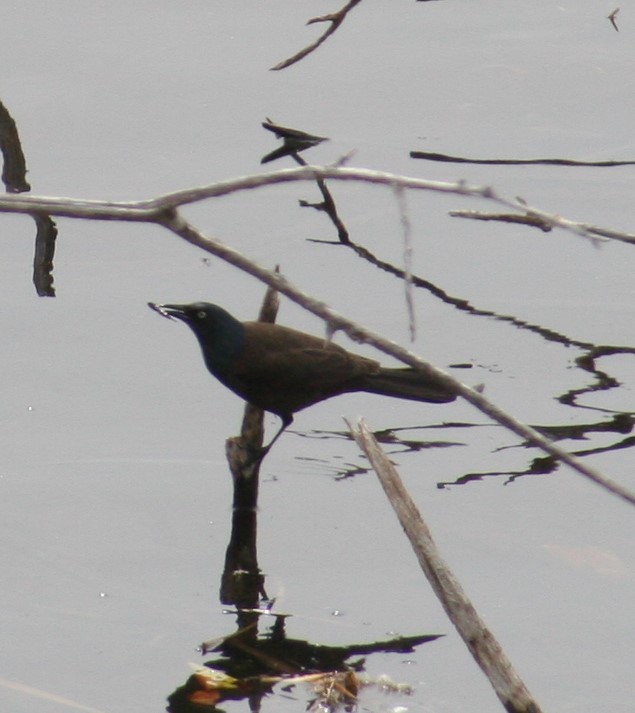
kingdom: Animalia
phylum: Chordata
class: Aves
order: Passeriformes
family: Icteridae
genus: Quiscalus
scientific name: Quiscalus quiscula
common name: Common grackle
